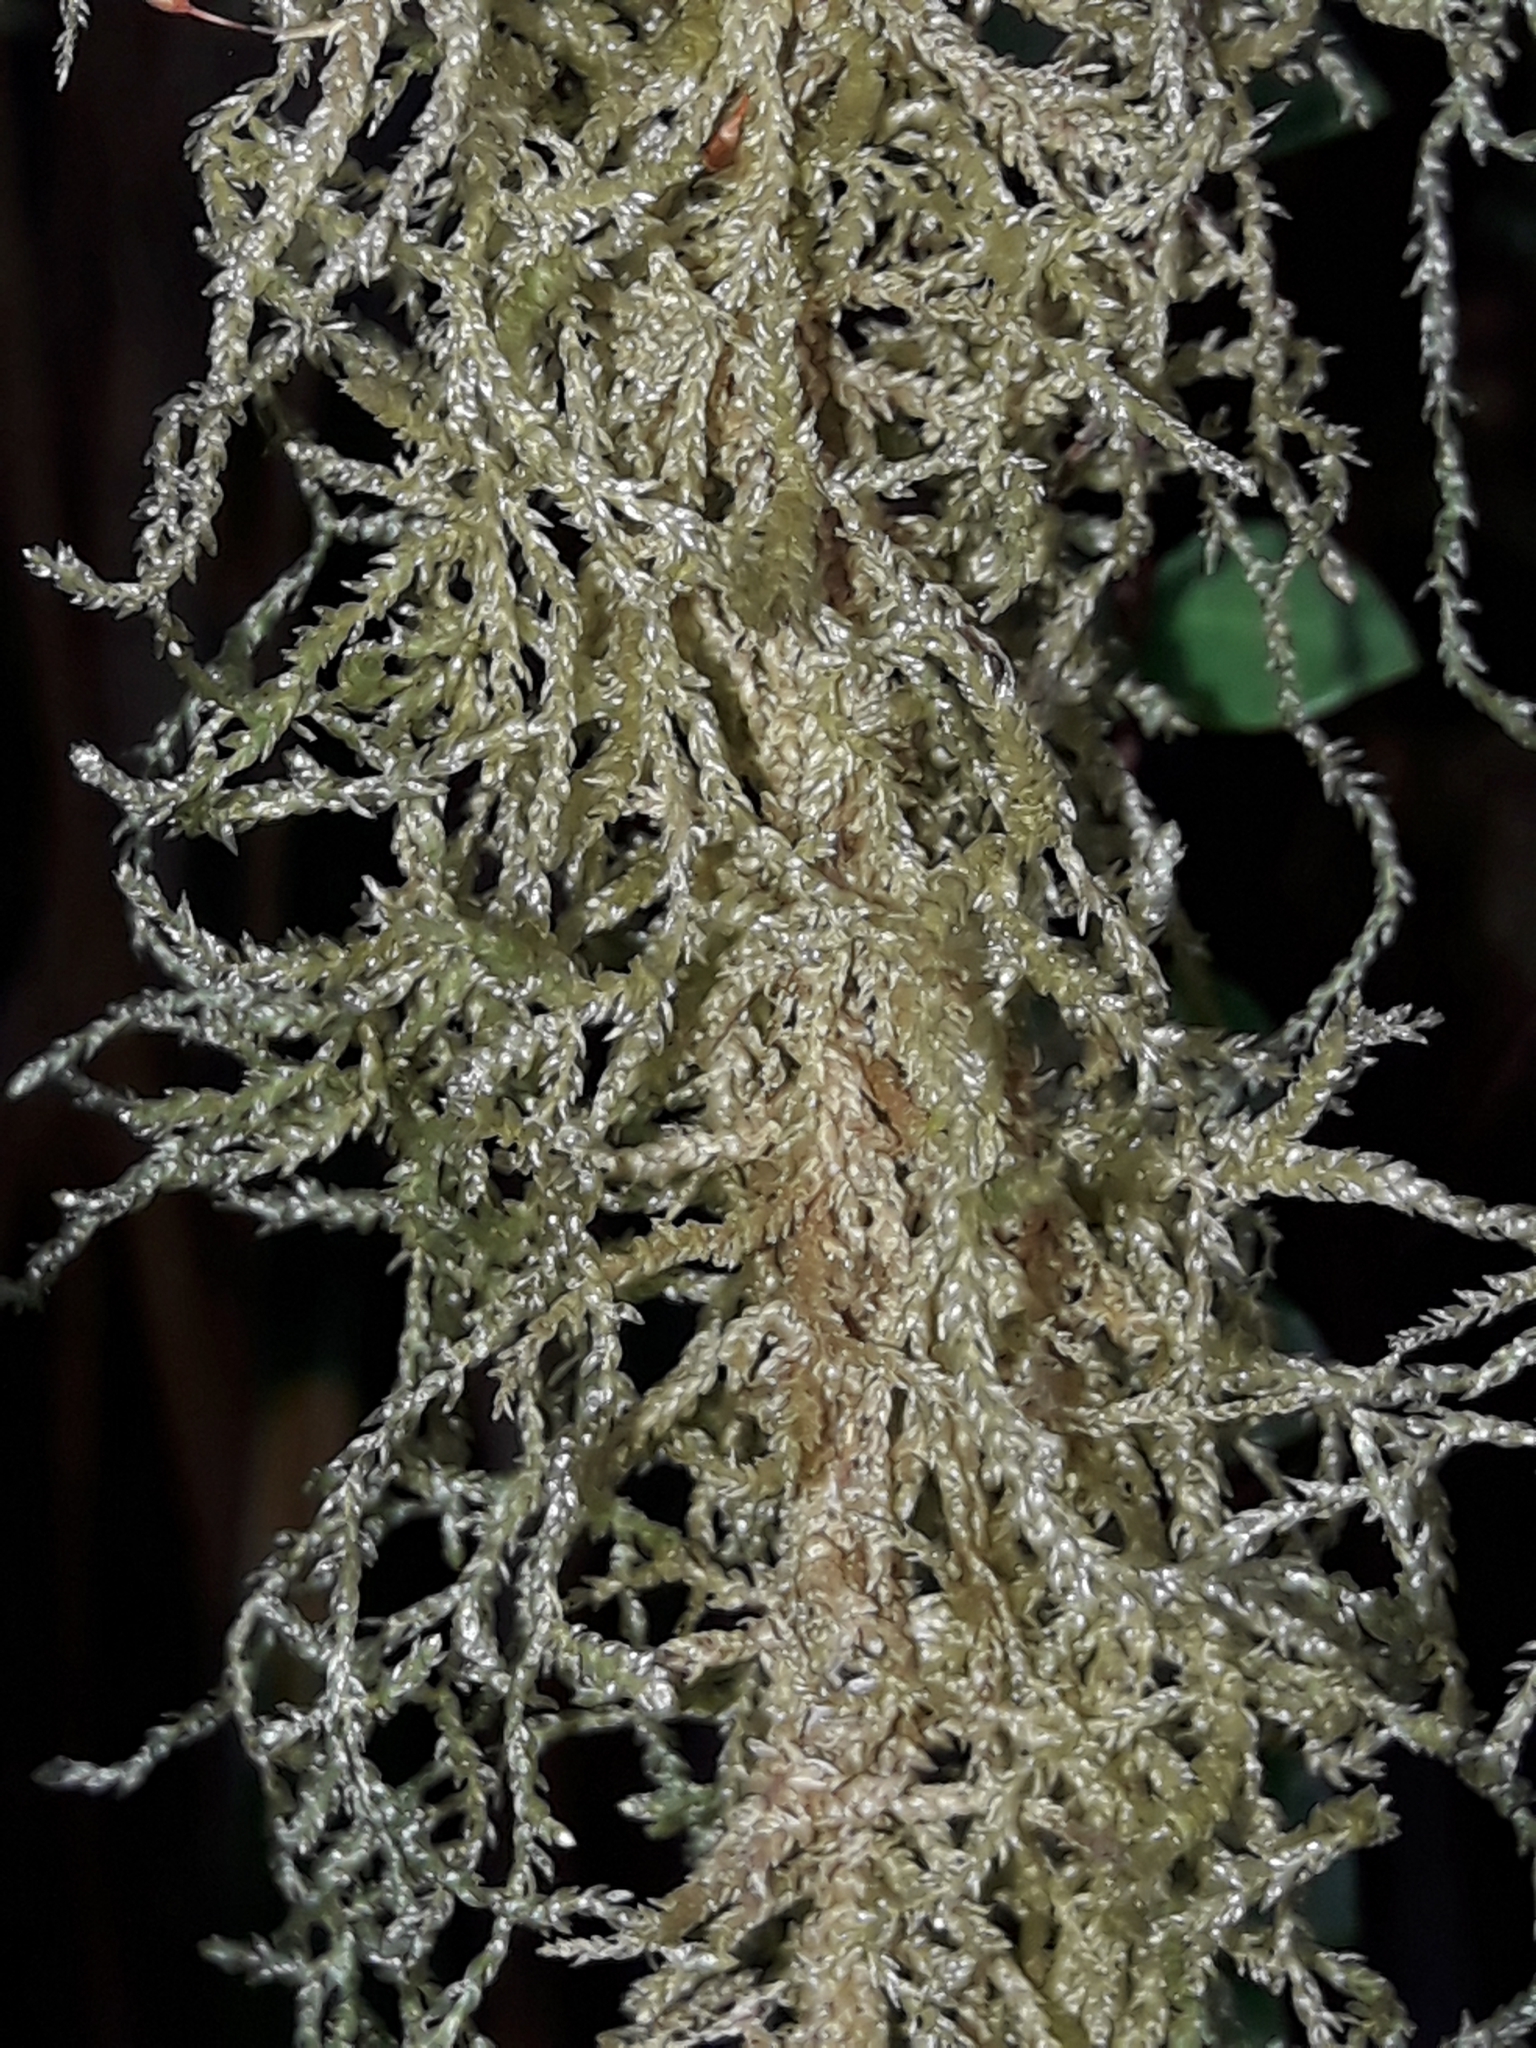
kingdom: Plantae
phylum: Bryophyta
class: Bryopsida
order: Hypnales
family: Lembophyllaceae
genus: Weymouthia
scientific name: Weymouthia mollis
